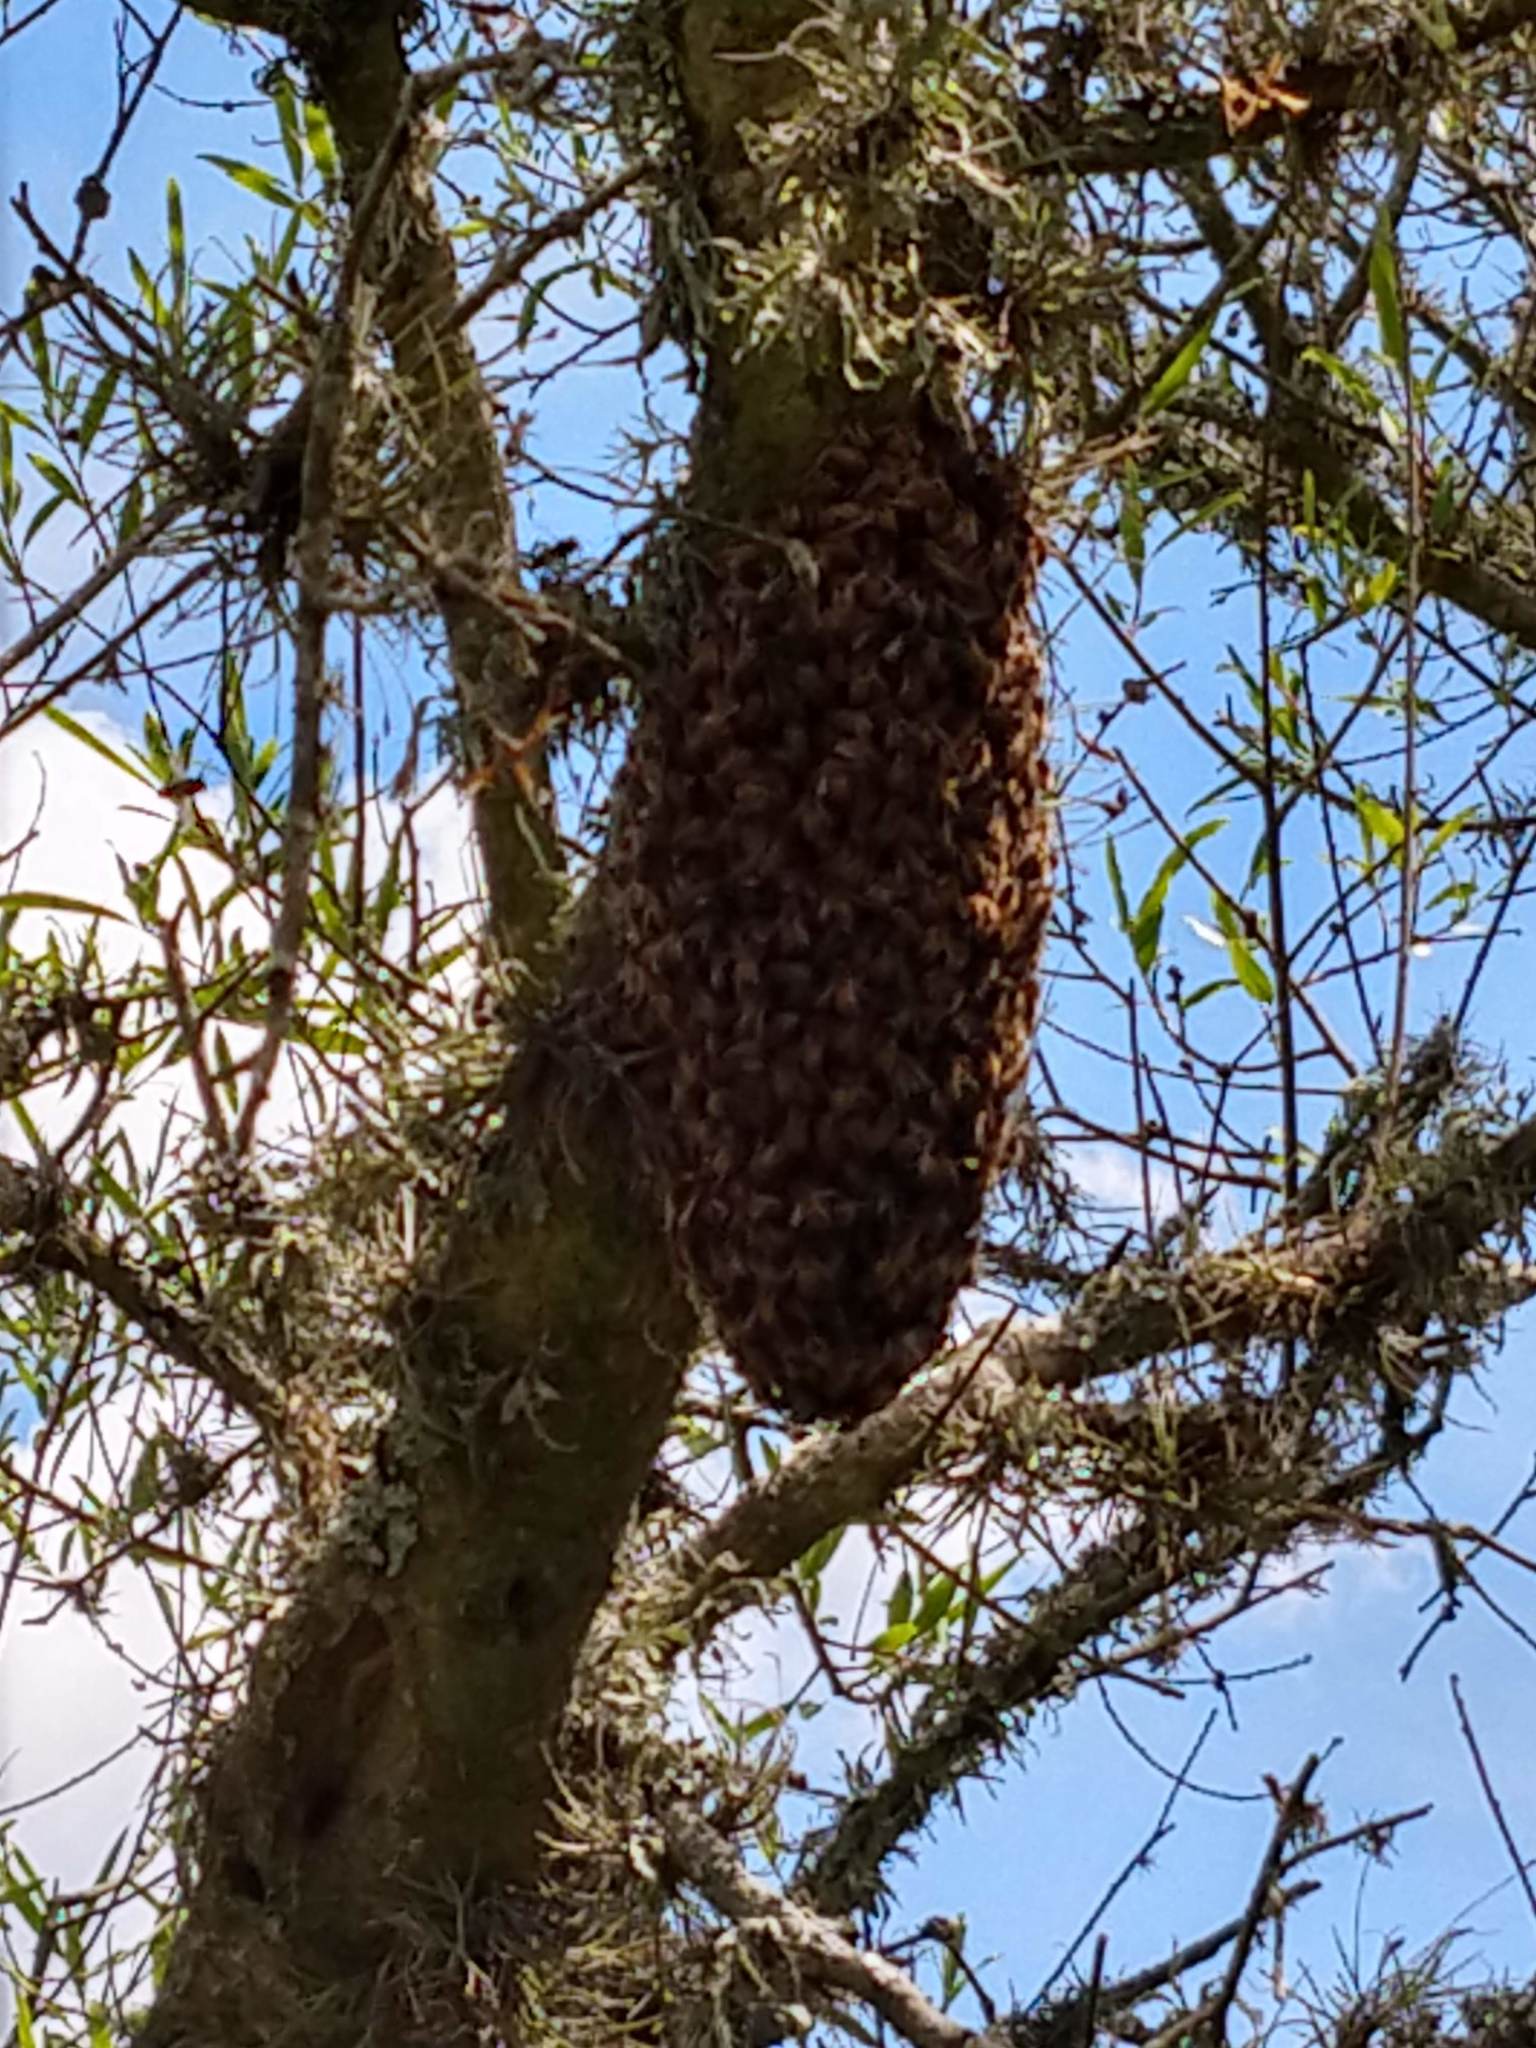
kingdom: Animalia
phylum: Arthropoda
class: Insecta
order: Hymenoptera
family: Apidae
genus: Apis
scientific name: Apis mellifera
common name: Honey bee
